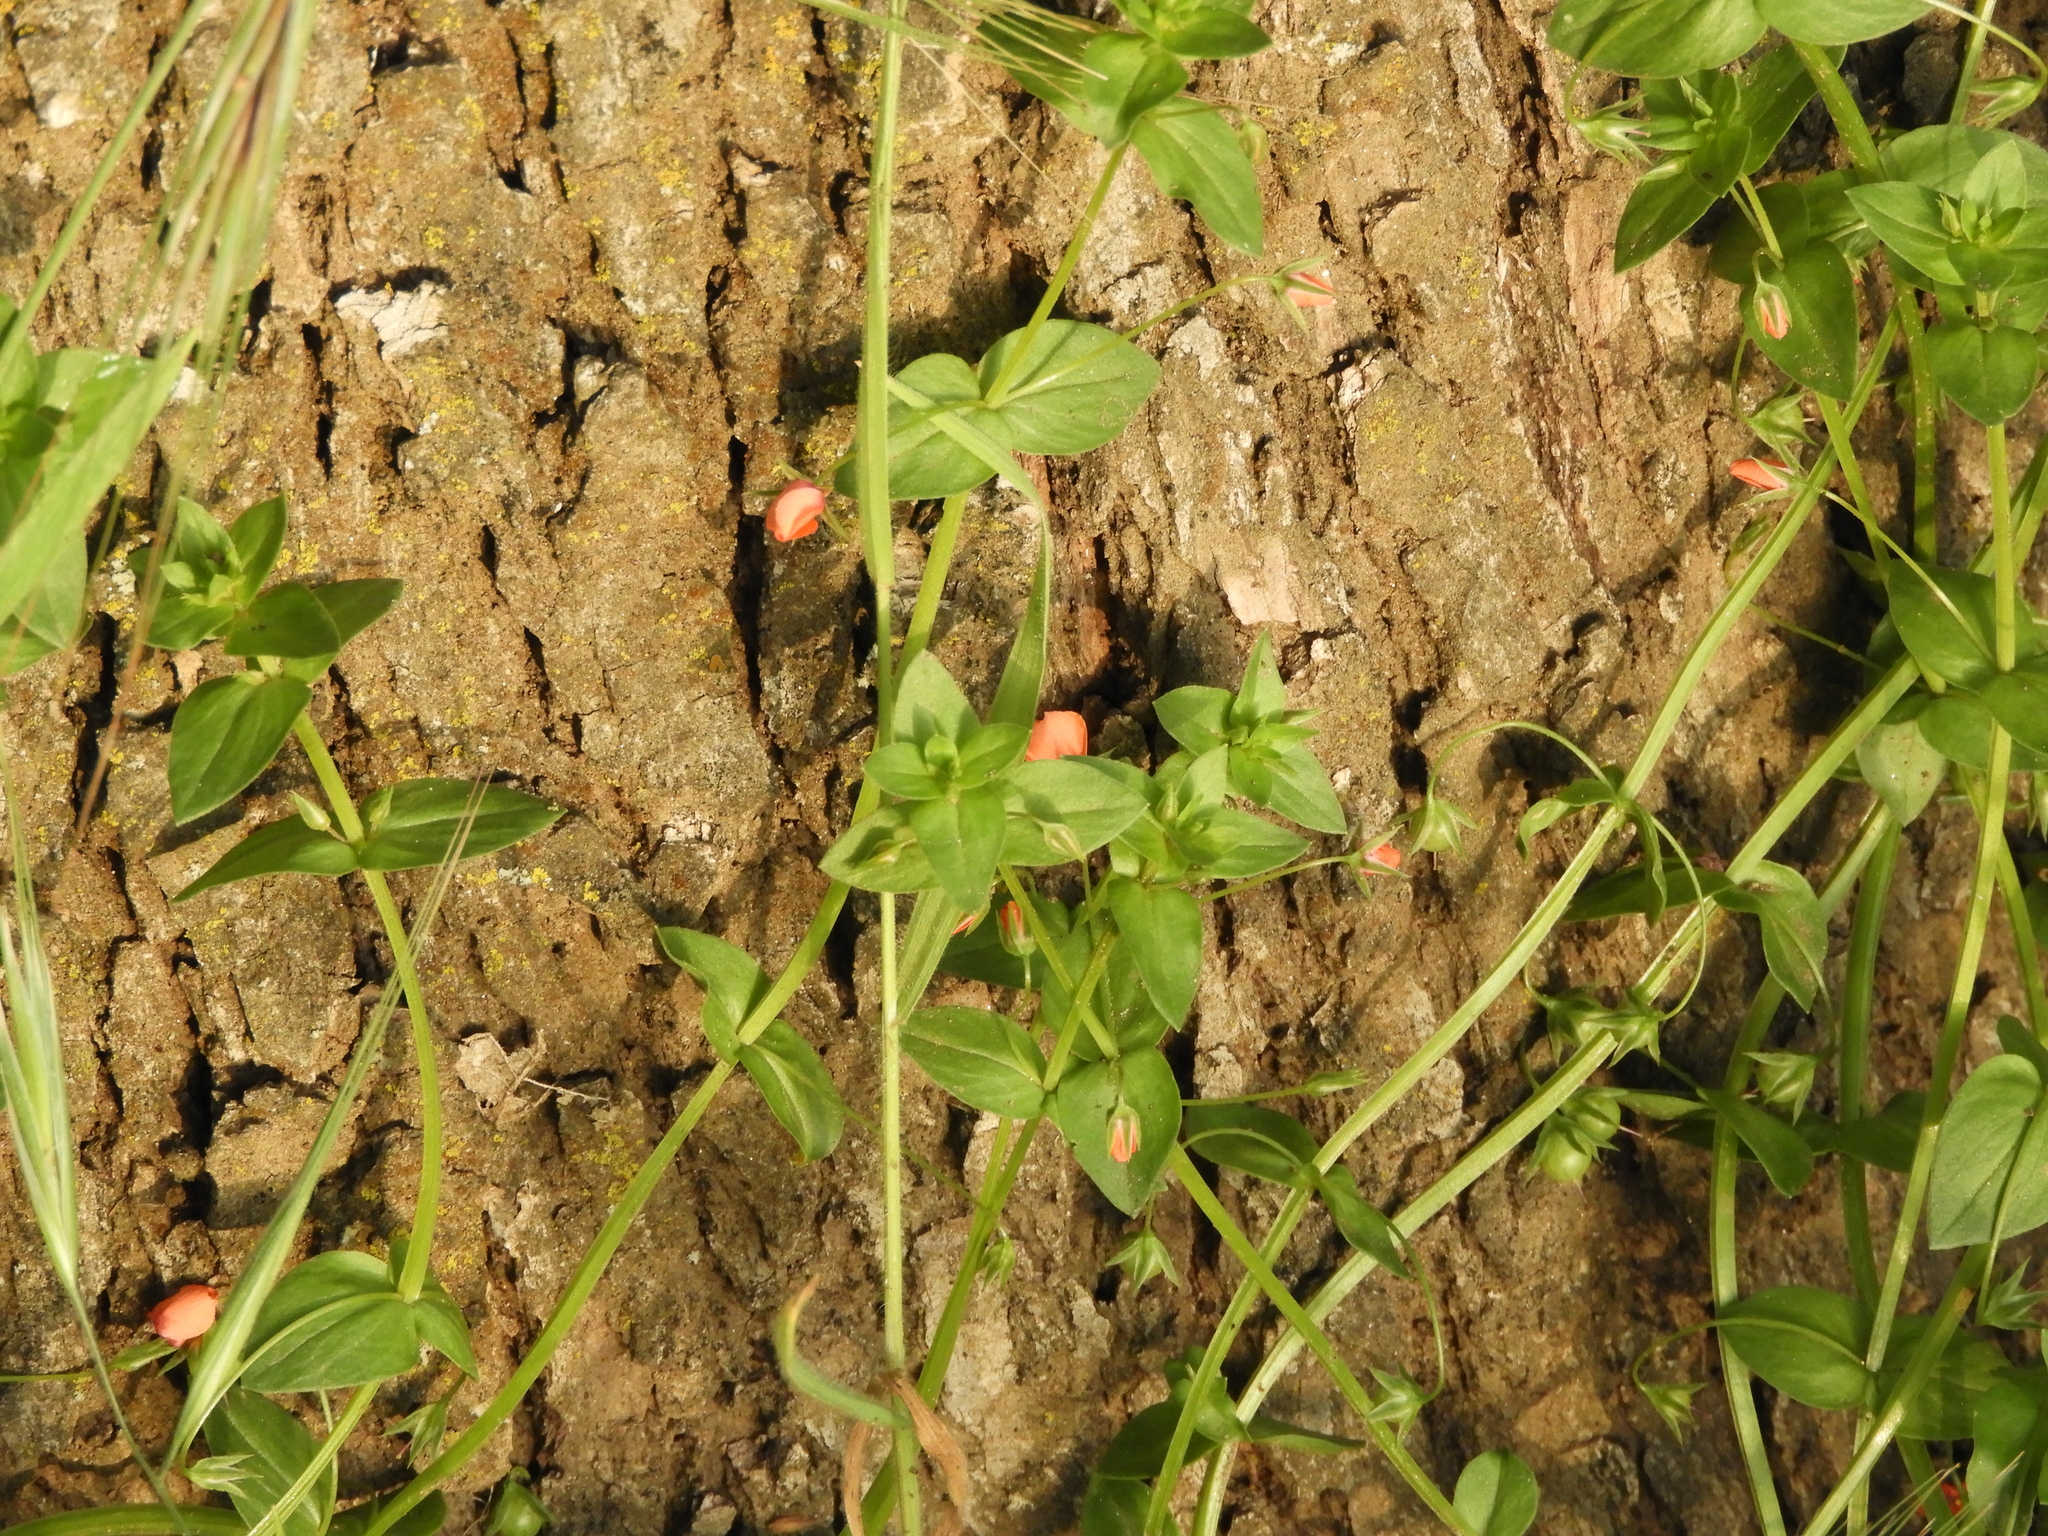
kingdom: Plantae
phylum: Tracheophyta
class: Magnoliopsida
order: Ericales
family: Primulaceae
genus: Lysimachia
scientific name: Lysimachia arvensis
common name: Scarlet pimpernel
